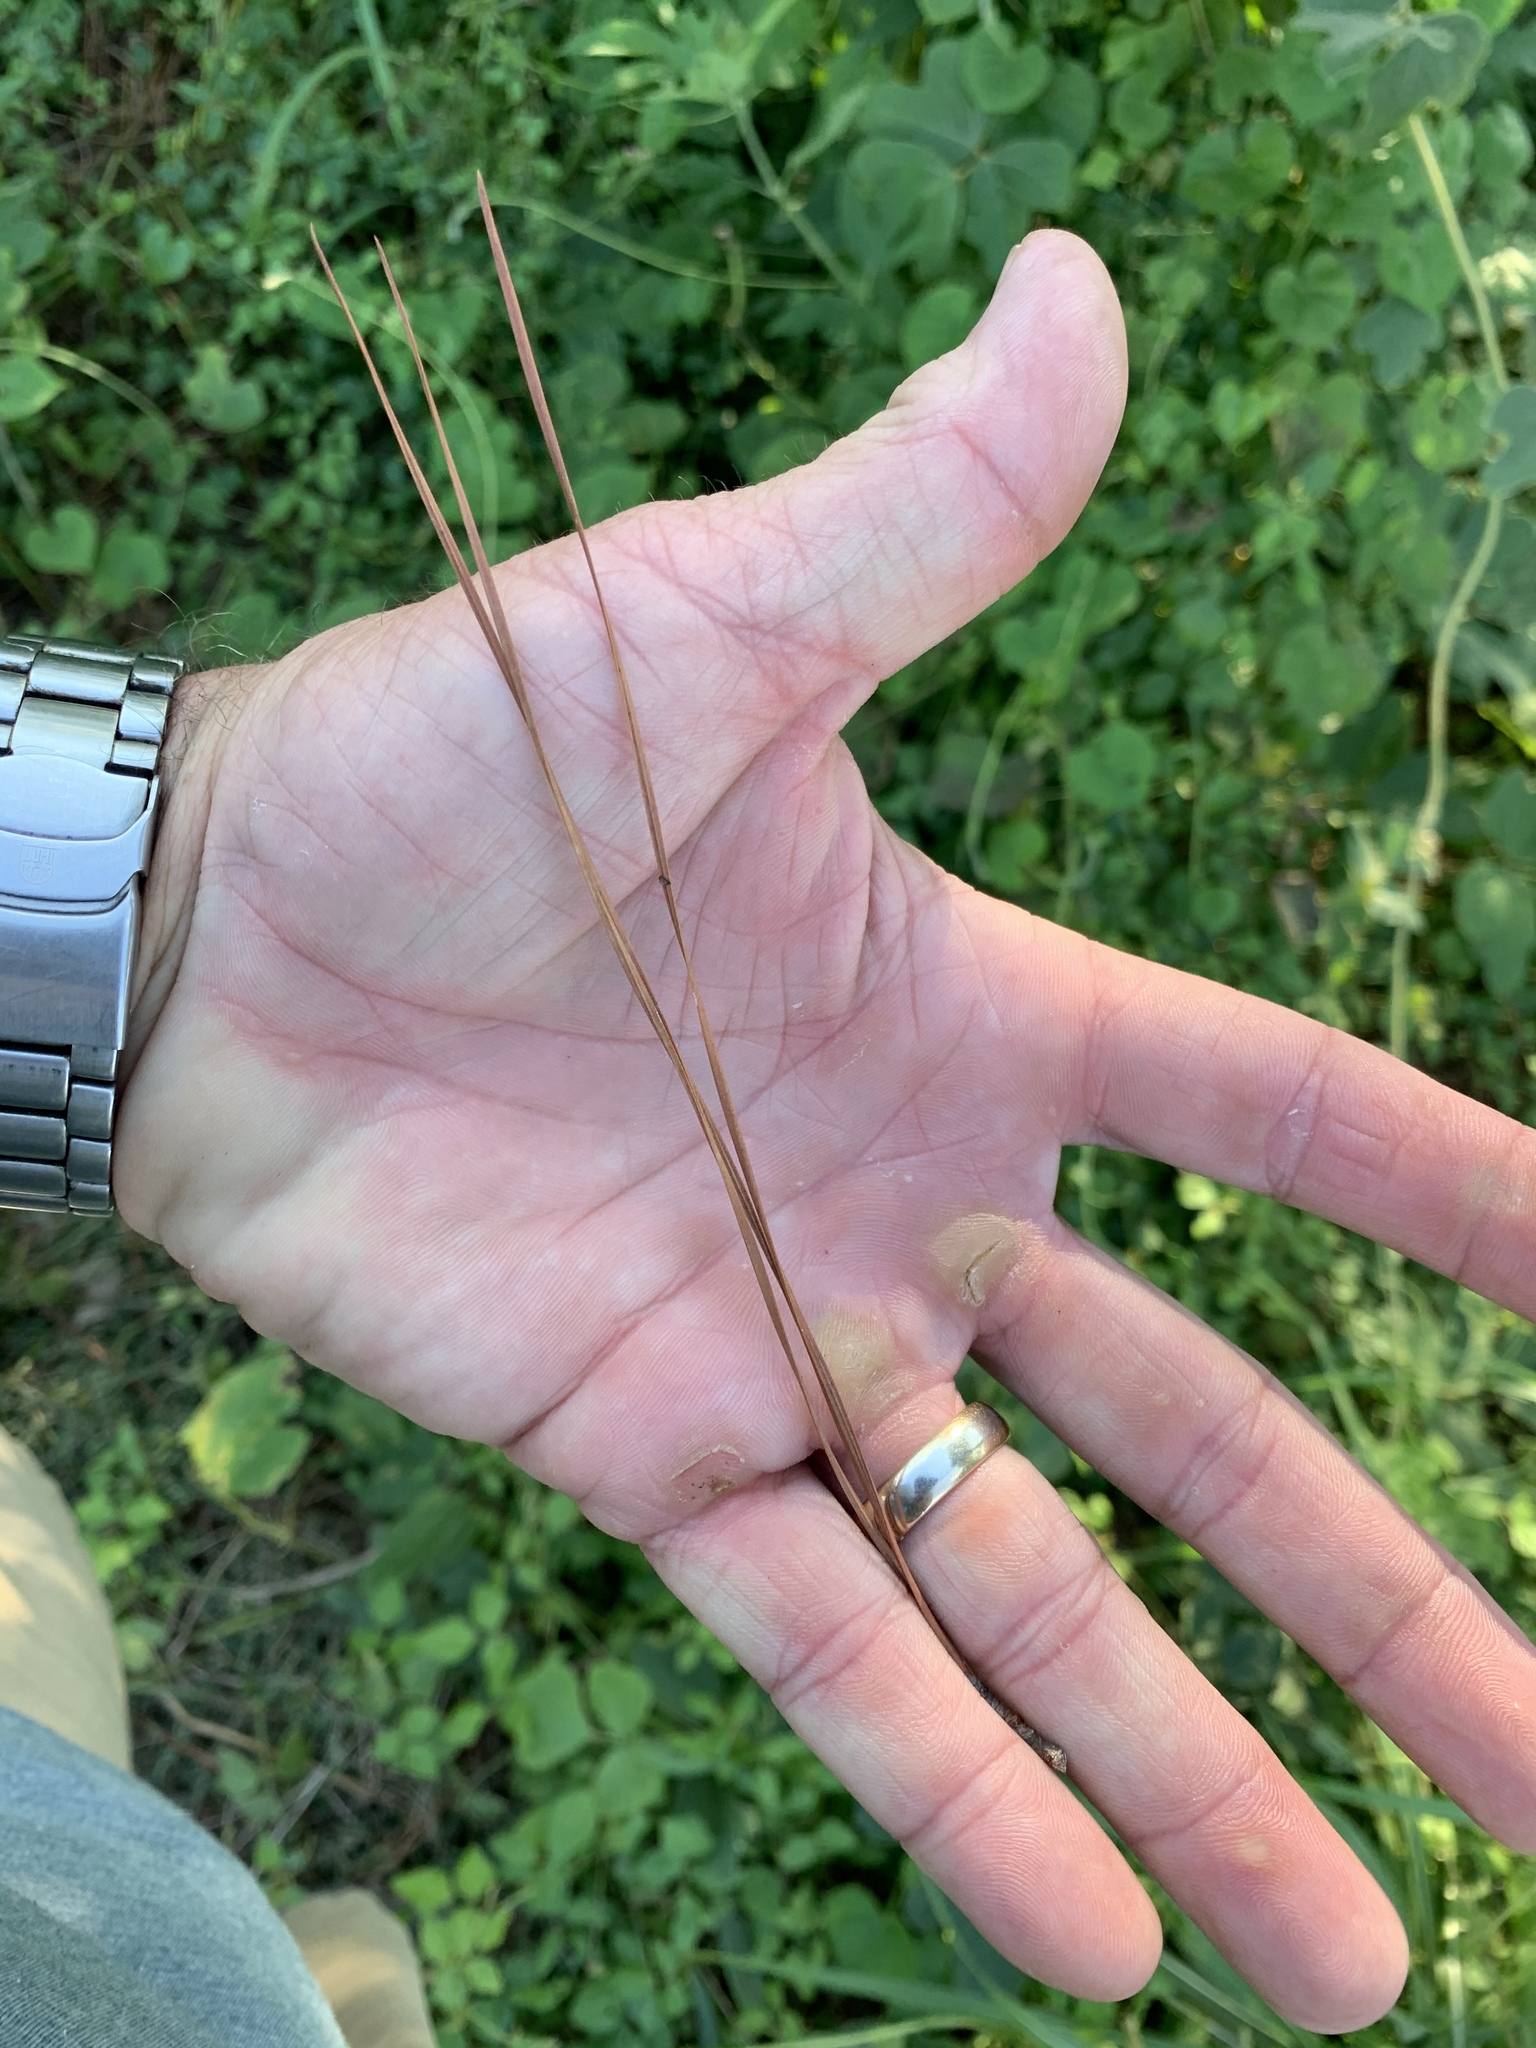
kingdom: Plantae
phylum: Tracheophyta
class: Pinopsida
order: Pinales
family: Pinaceae
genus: Pinus
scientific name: Pinus taeda
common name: Loblolly pine
